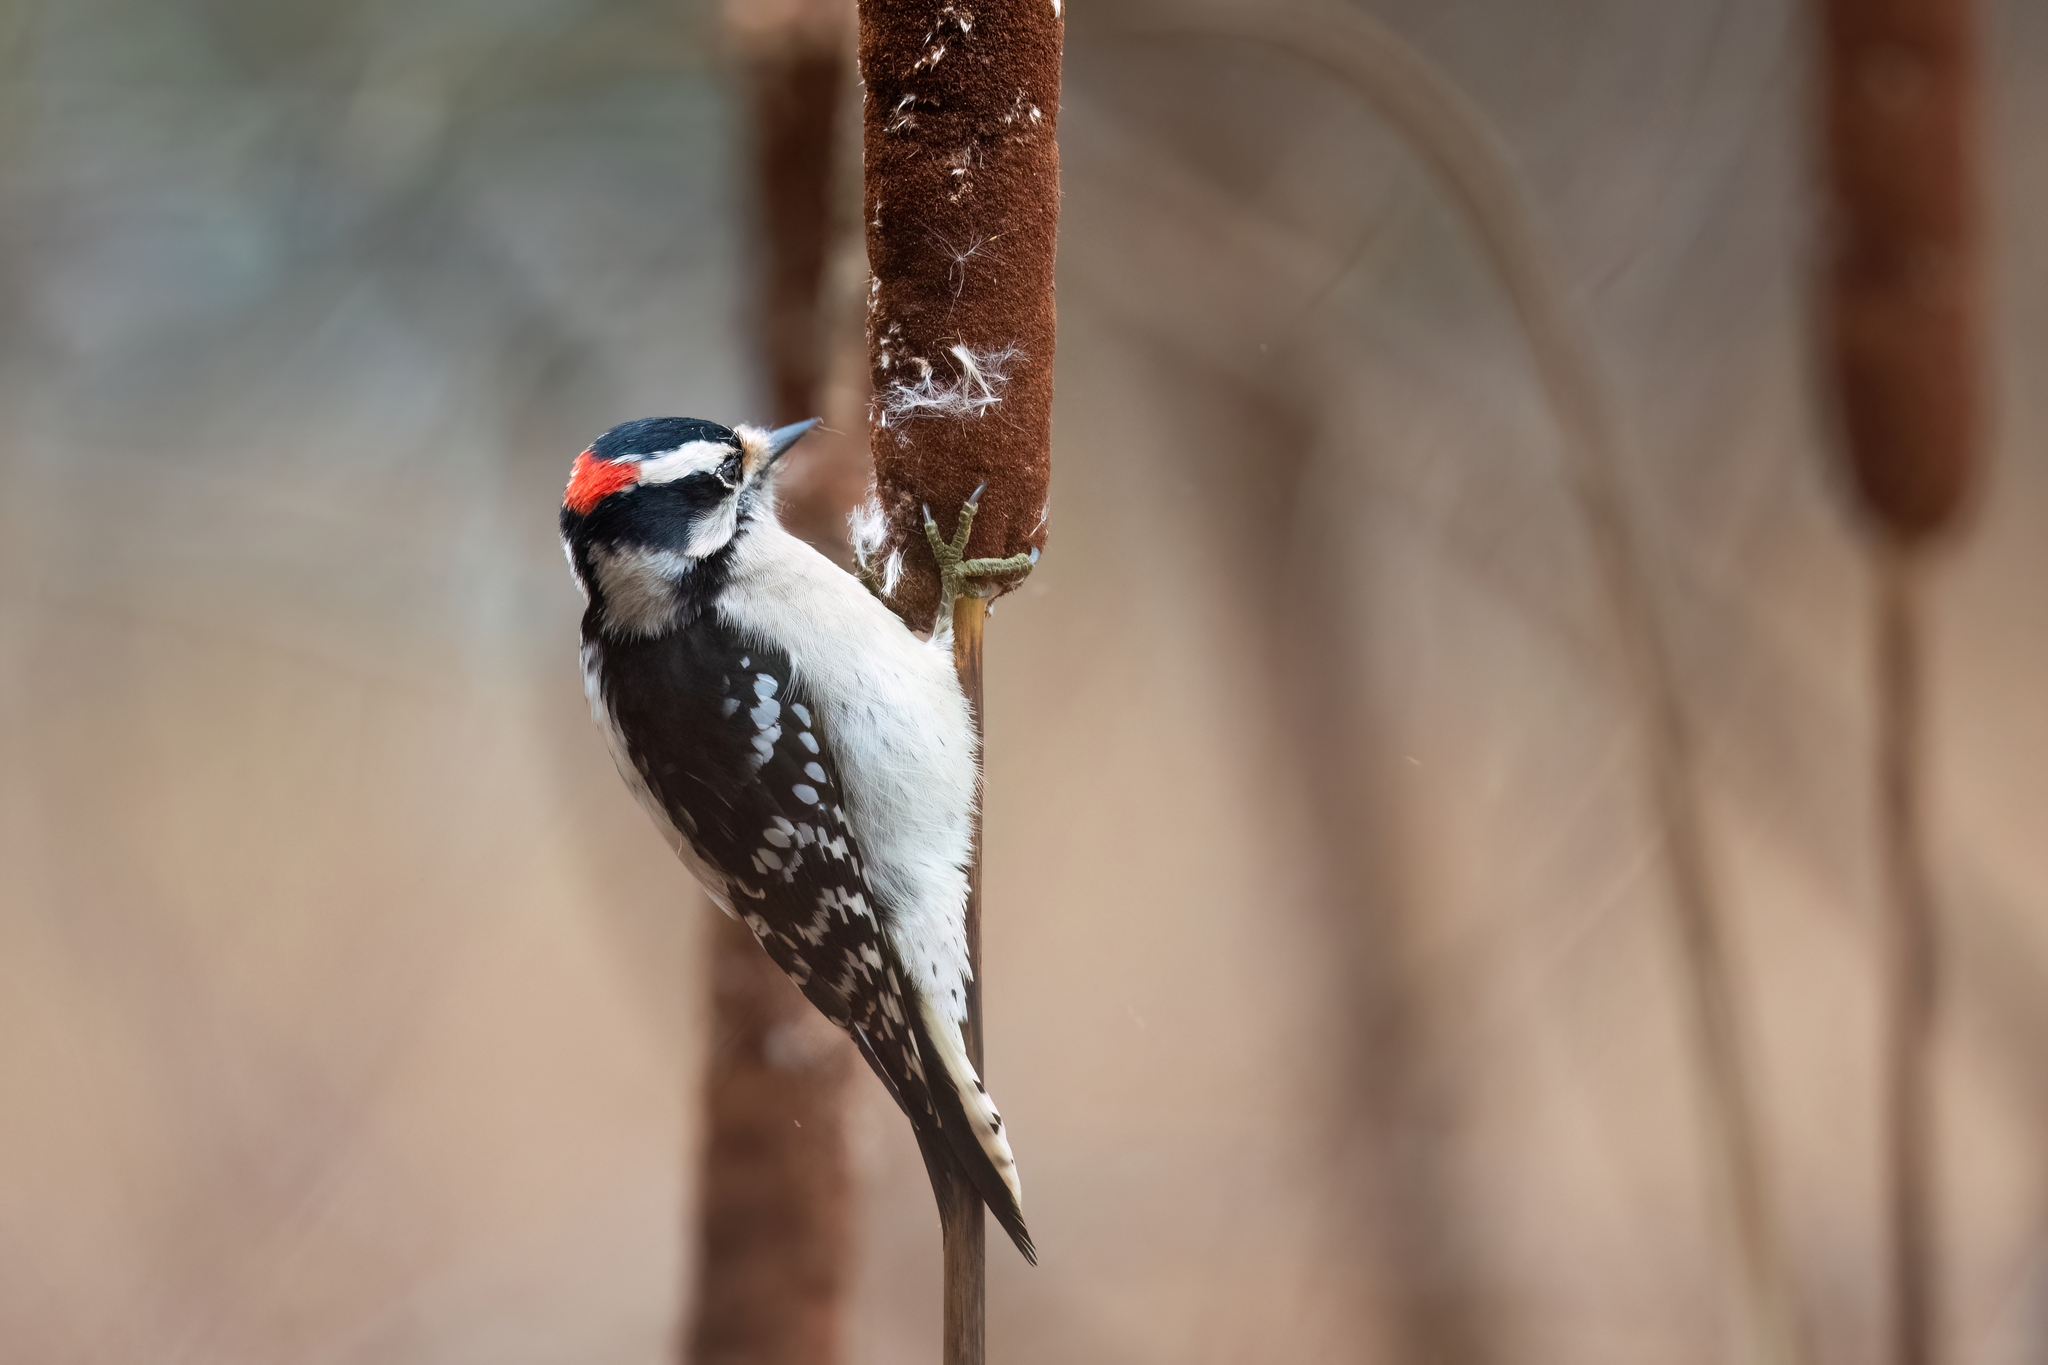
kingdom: Animalia
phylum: Chordata
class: Aves
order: Piciformes
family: Picidae
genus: Dryobates
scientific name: Dryobates pubescens
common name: Downy woodpecker
